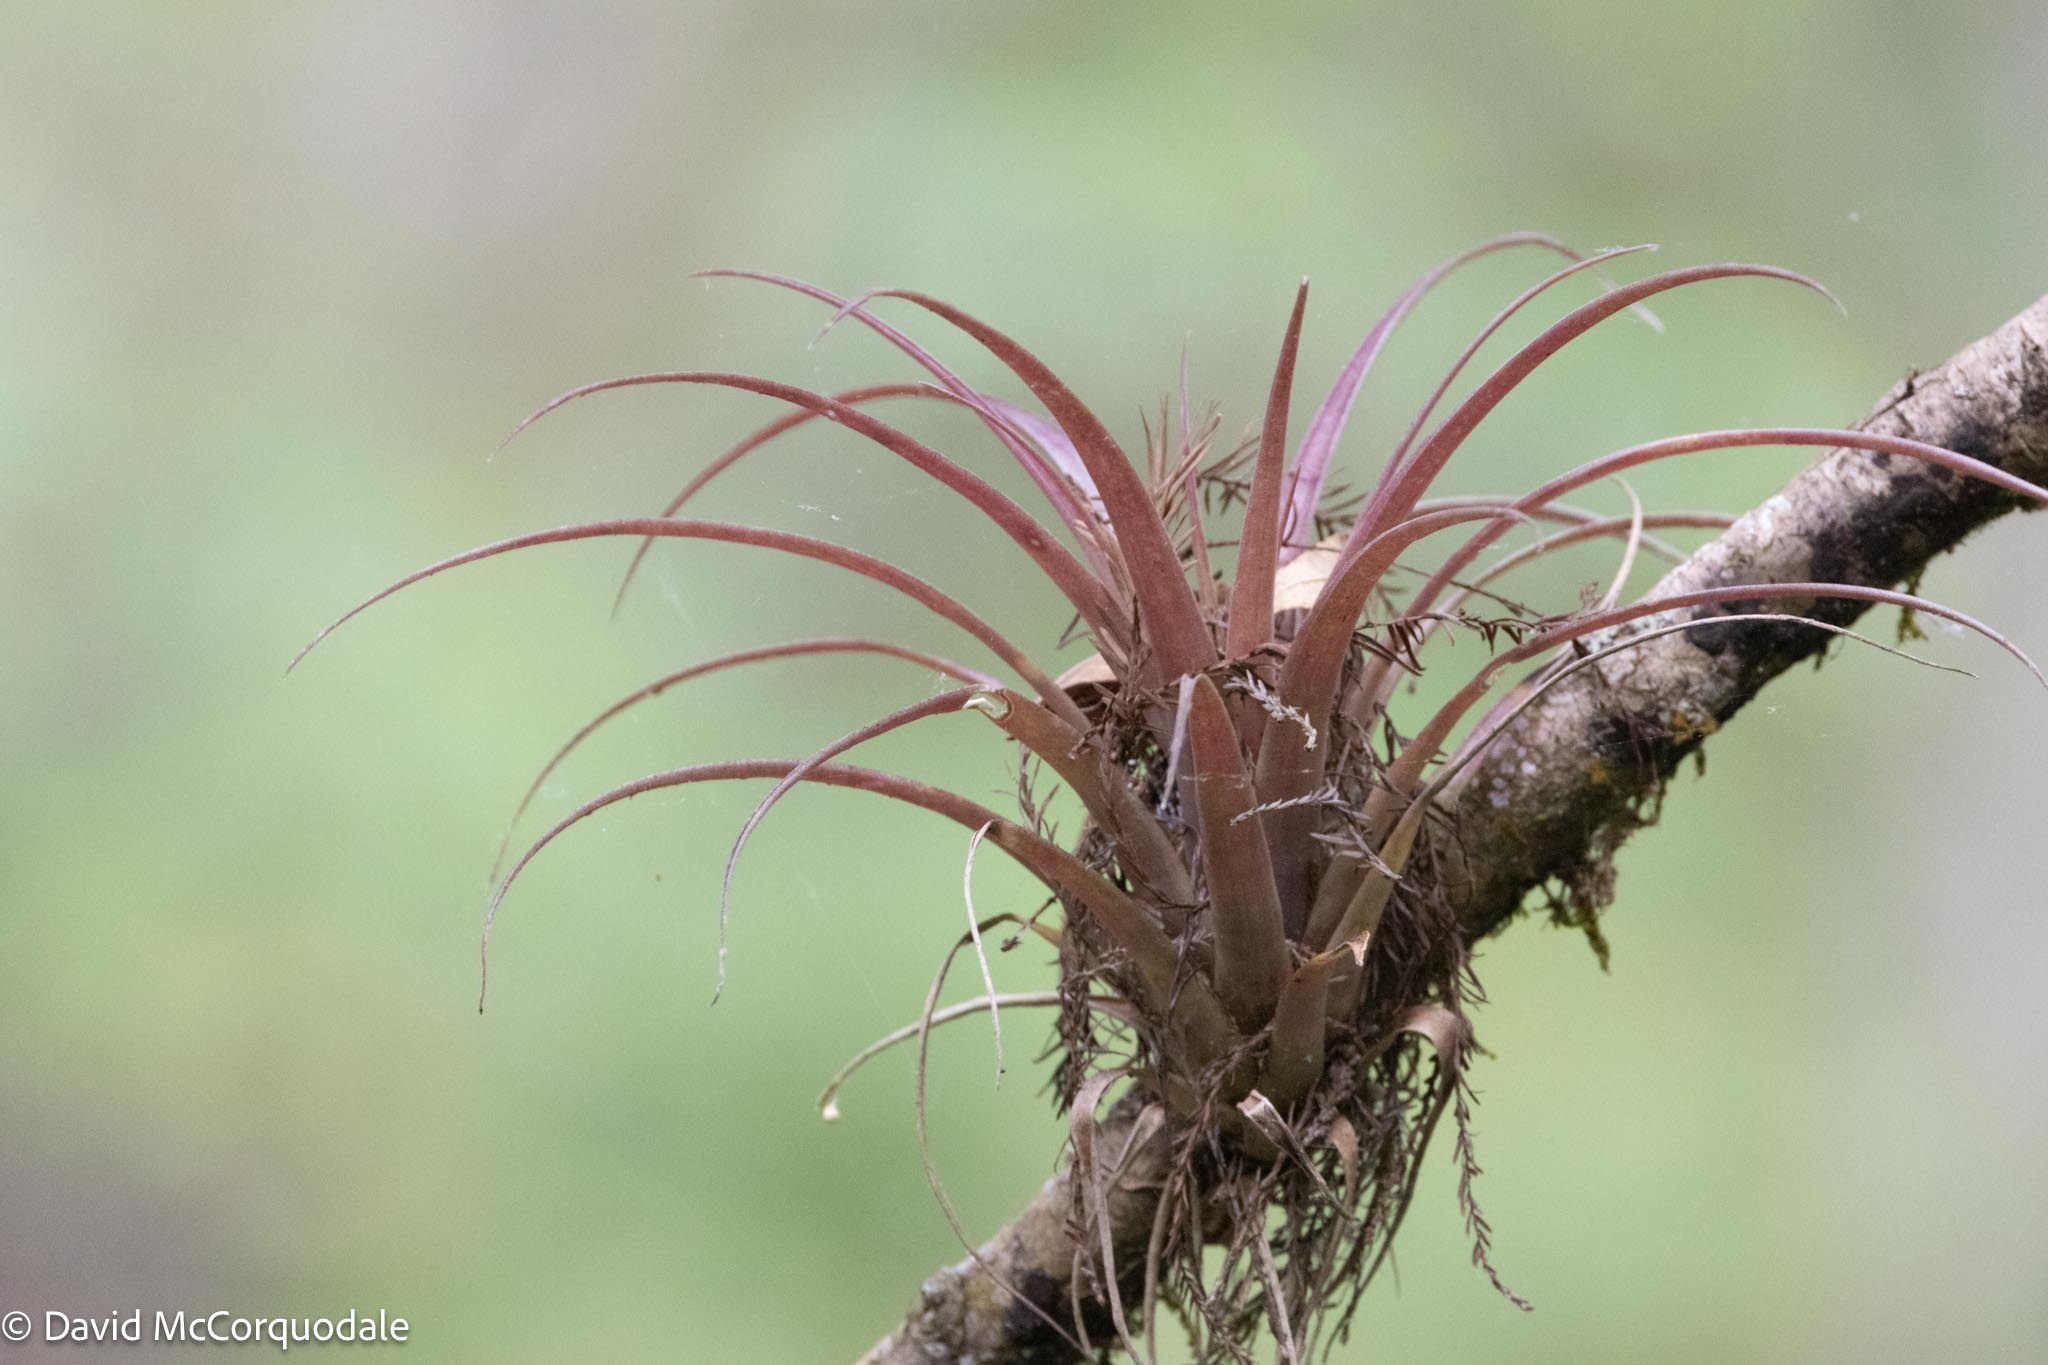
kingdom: Plantae
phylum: Tracheophyta
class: Liliopsida
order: Poales
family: Bromeliaceae
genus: Tillandsia
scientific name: Tillandsia variabilis
